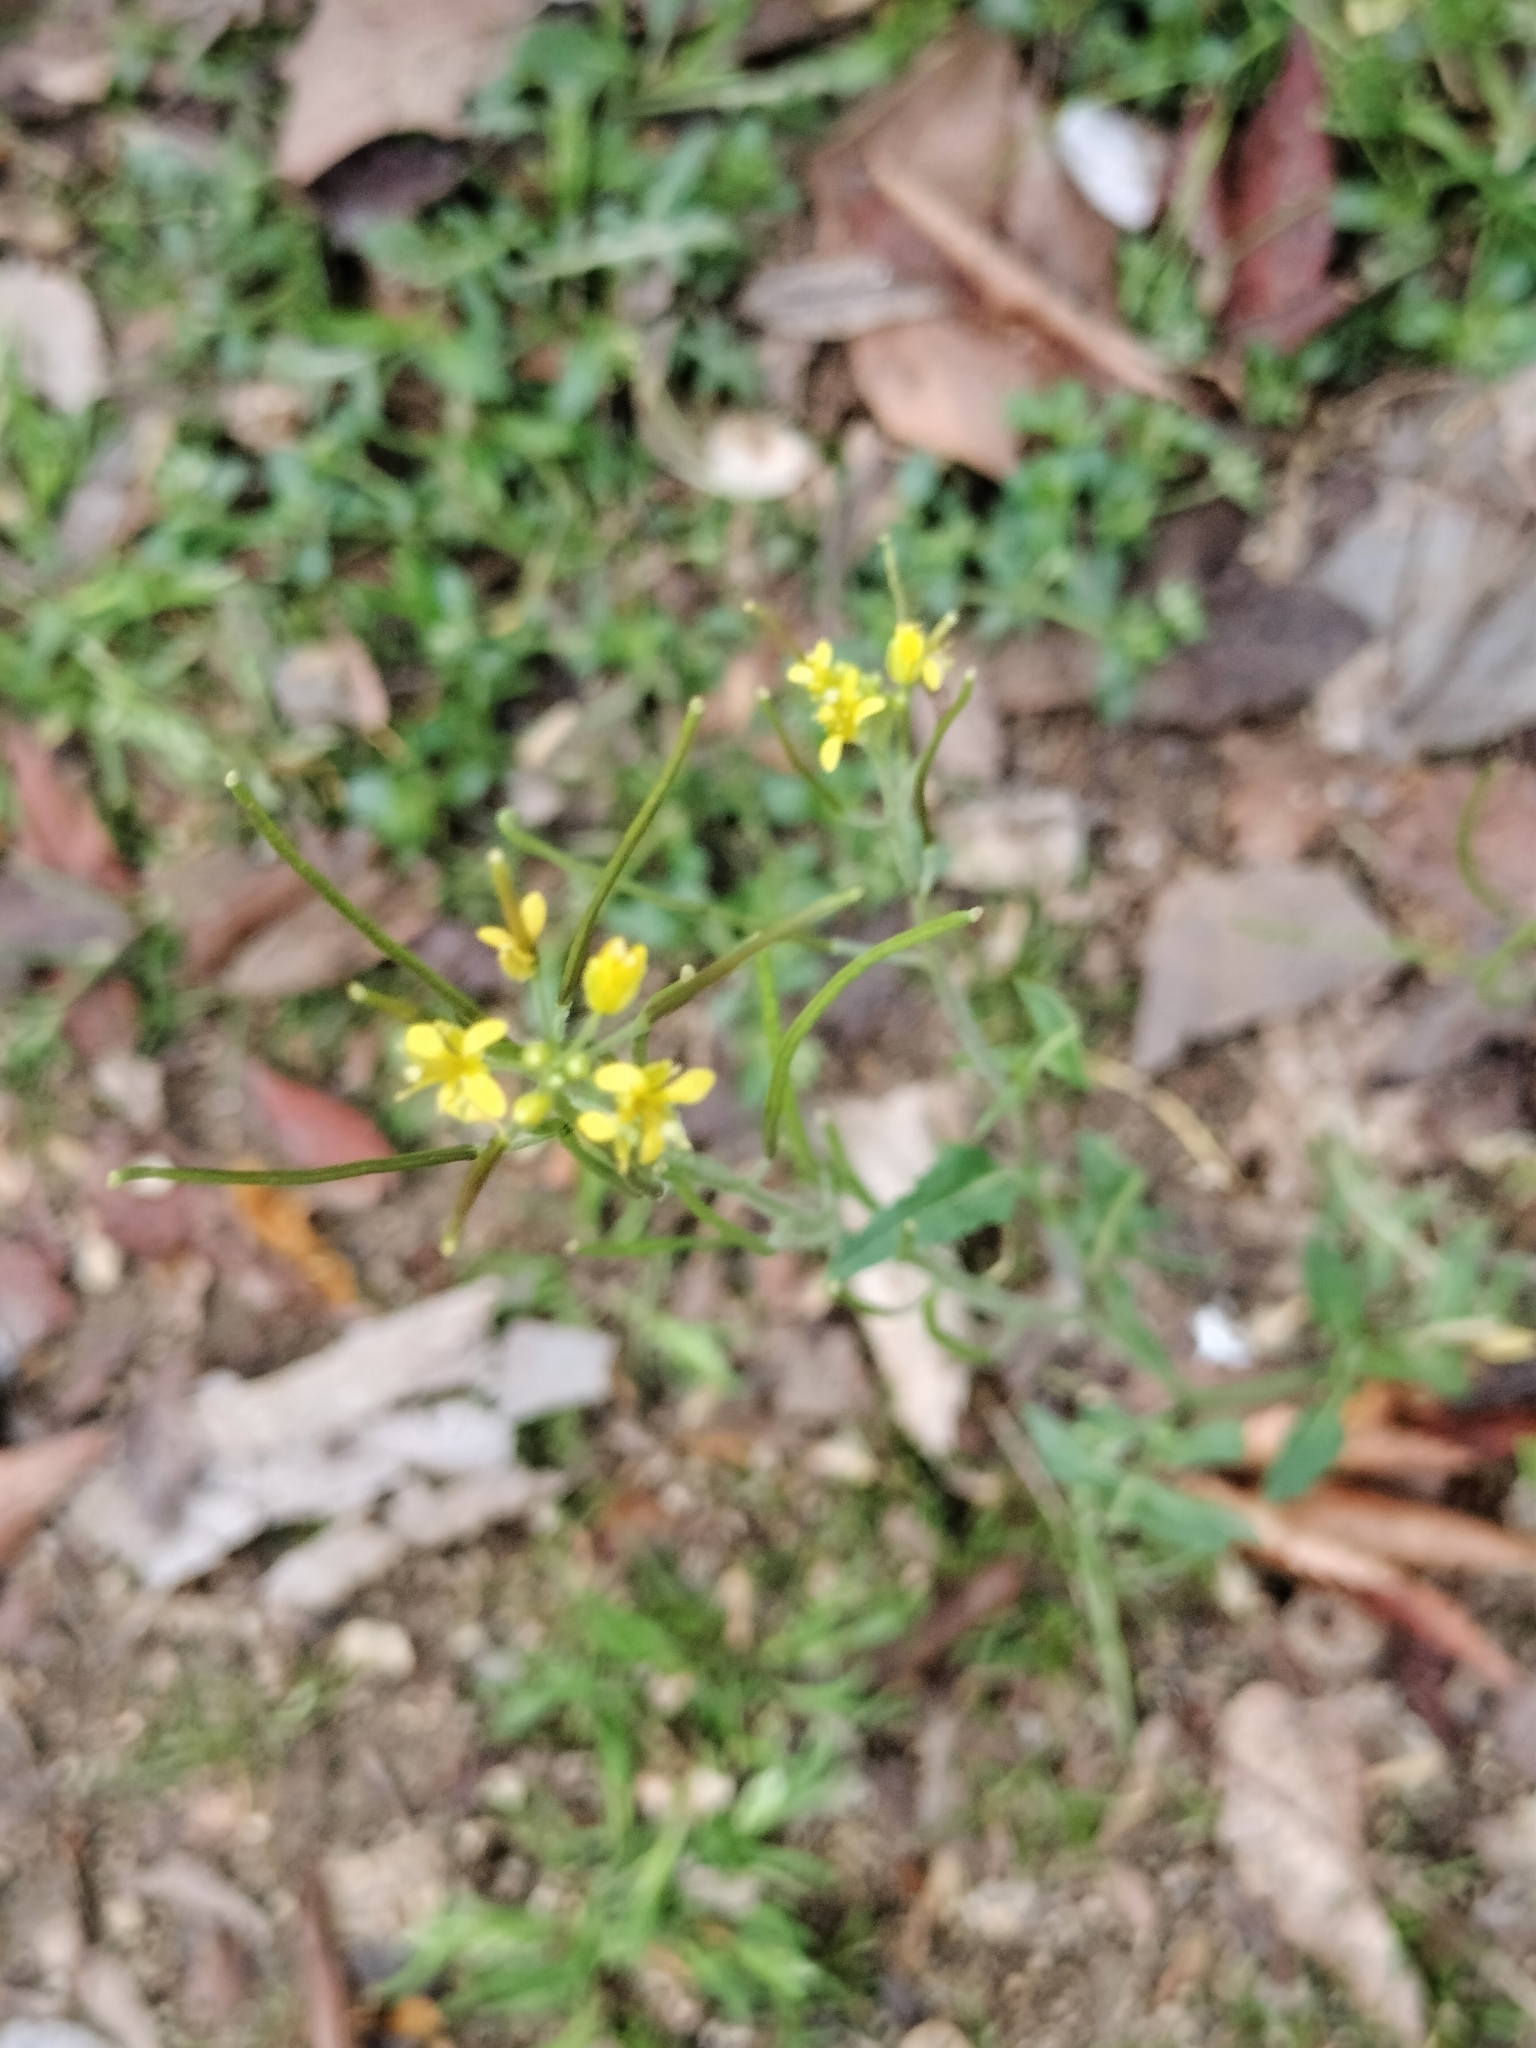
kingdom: Plantae
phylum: Tracheophyta
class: Magnoliopsida
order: Brassicales
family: Brassicaceae
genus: Sisymbrium
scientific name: Sisymbrium irio
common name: London rocket
